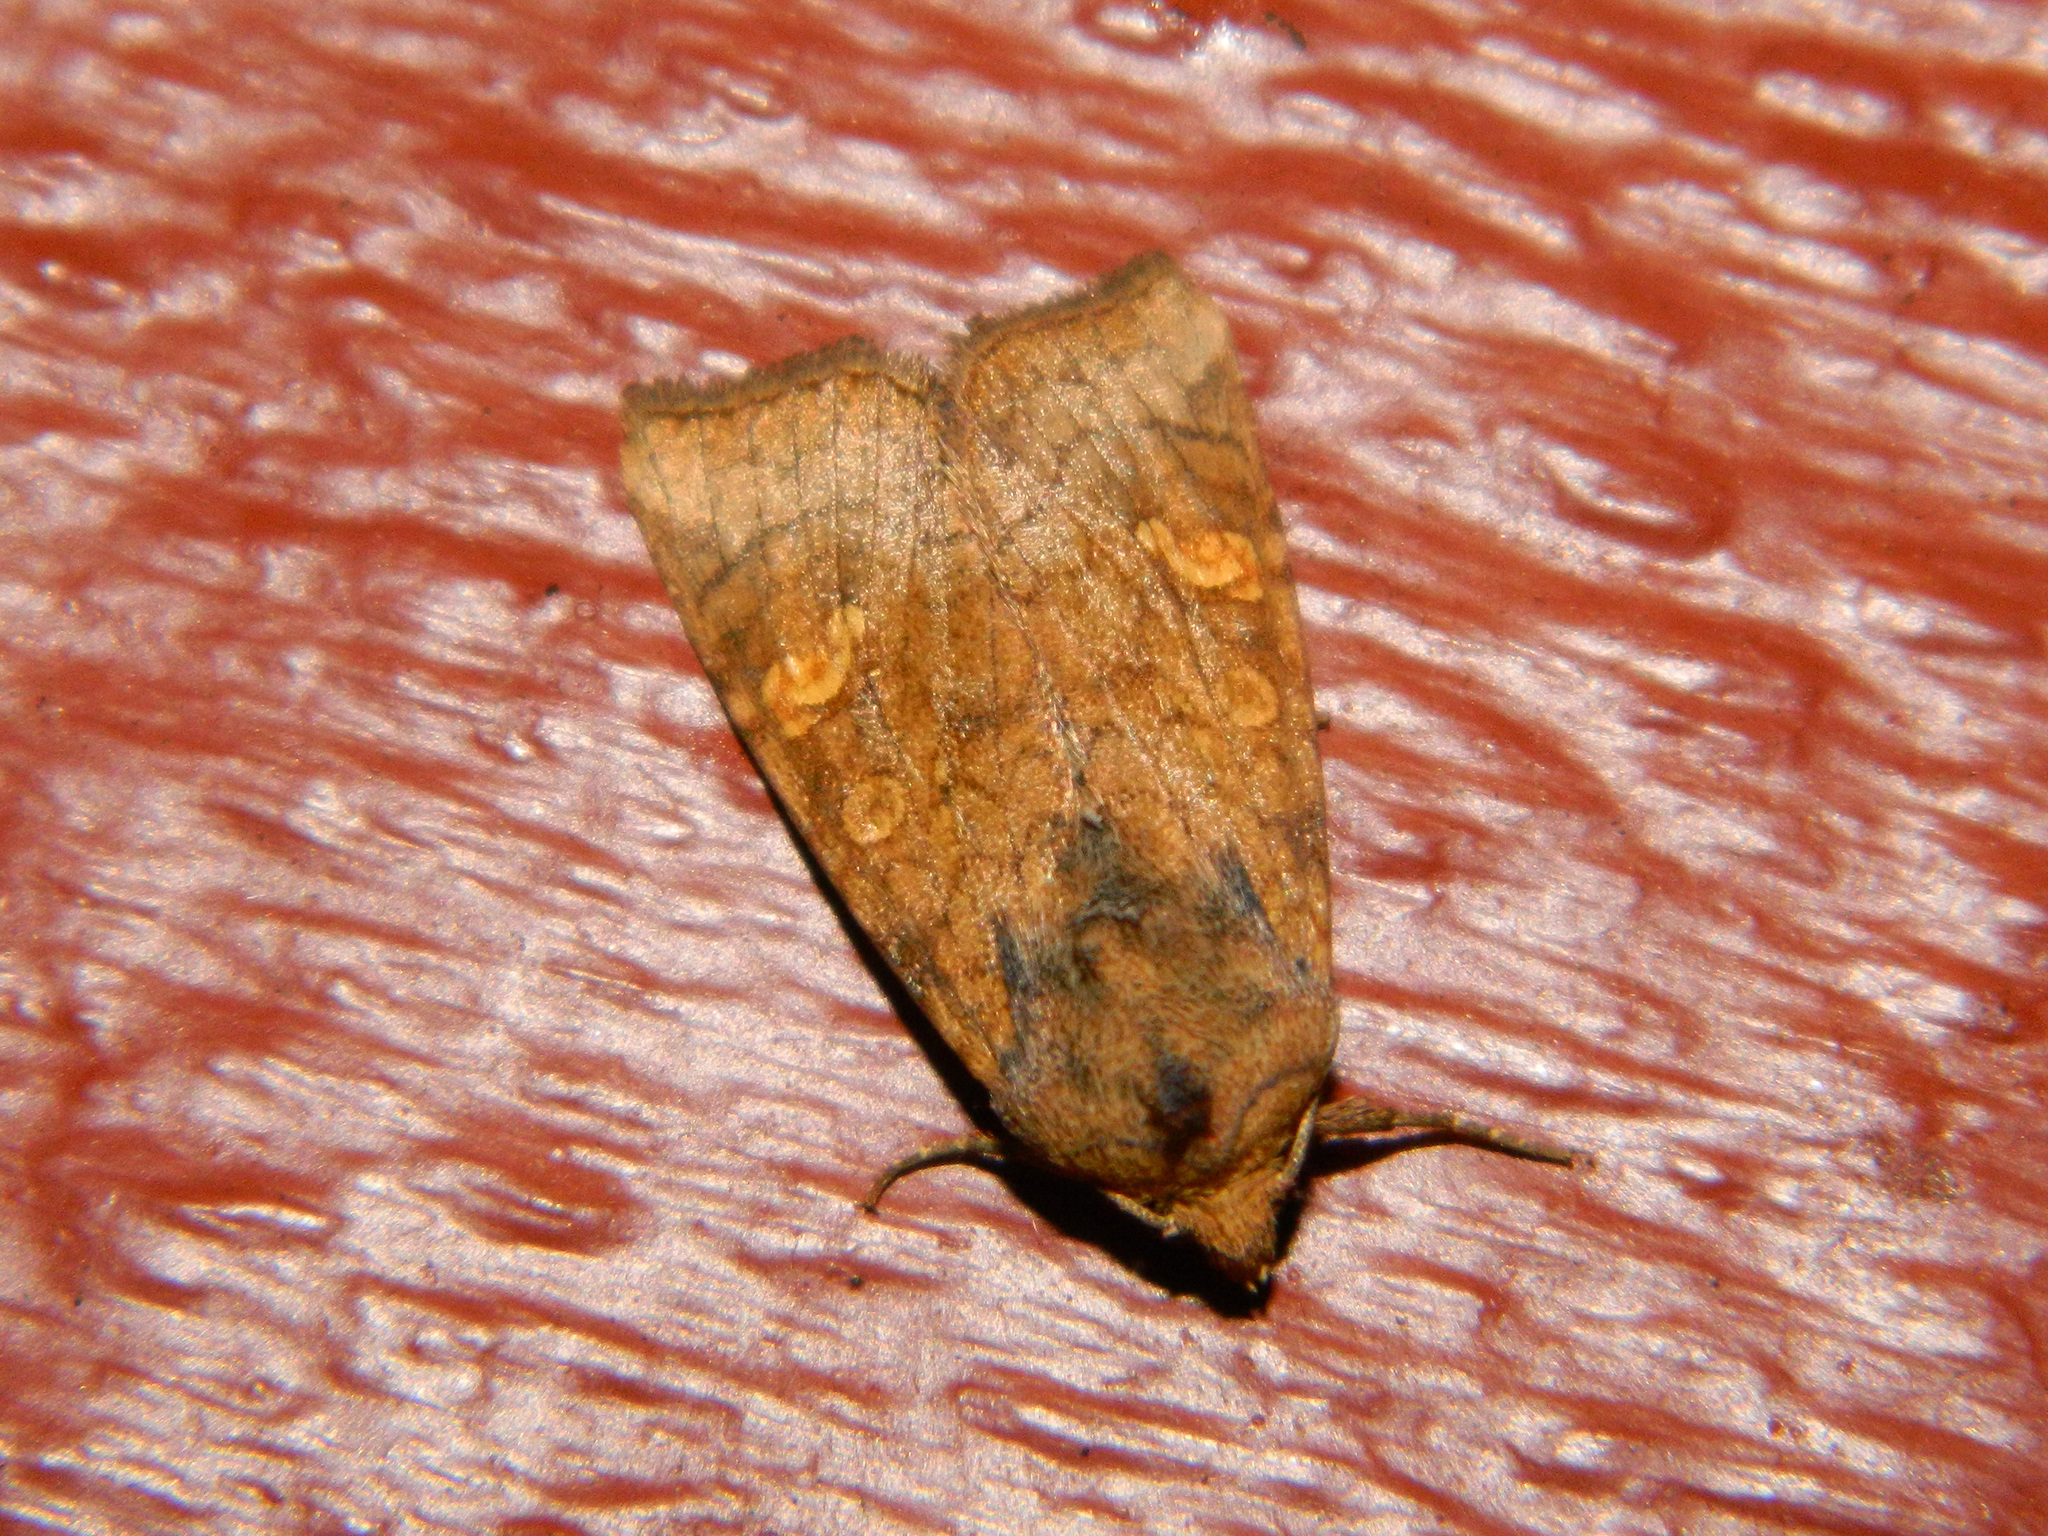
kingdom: Animalia
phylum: Arthropoda
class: Insecta
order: Lepidoptera
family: Noctuidae
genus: Amphipoea
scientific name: Amphipoea americana
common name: American ear moth
